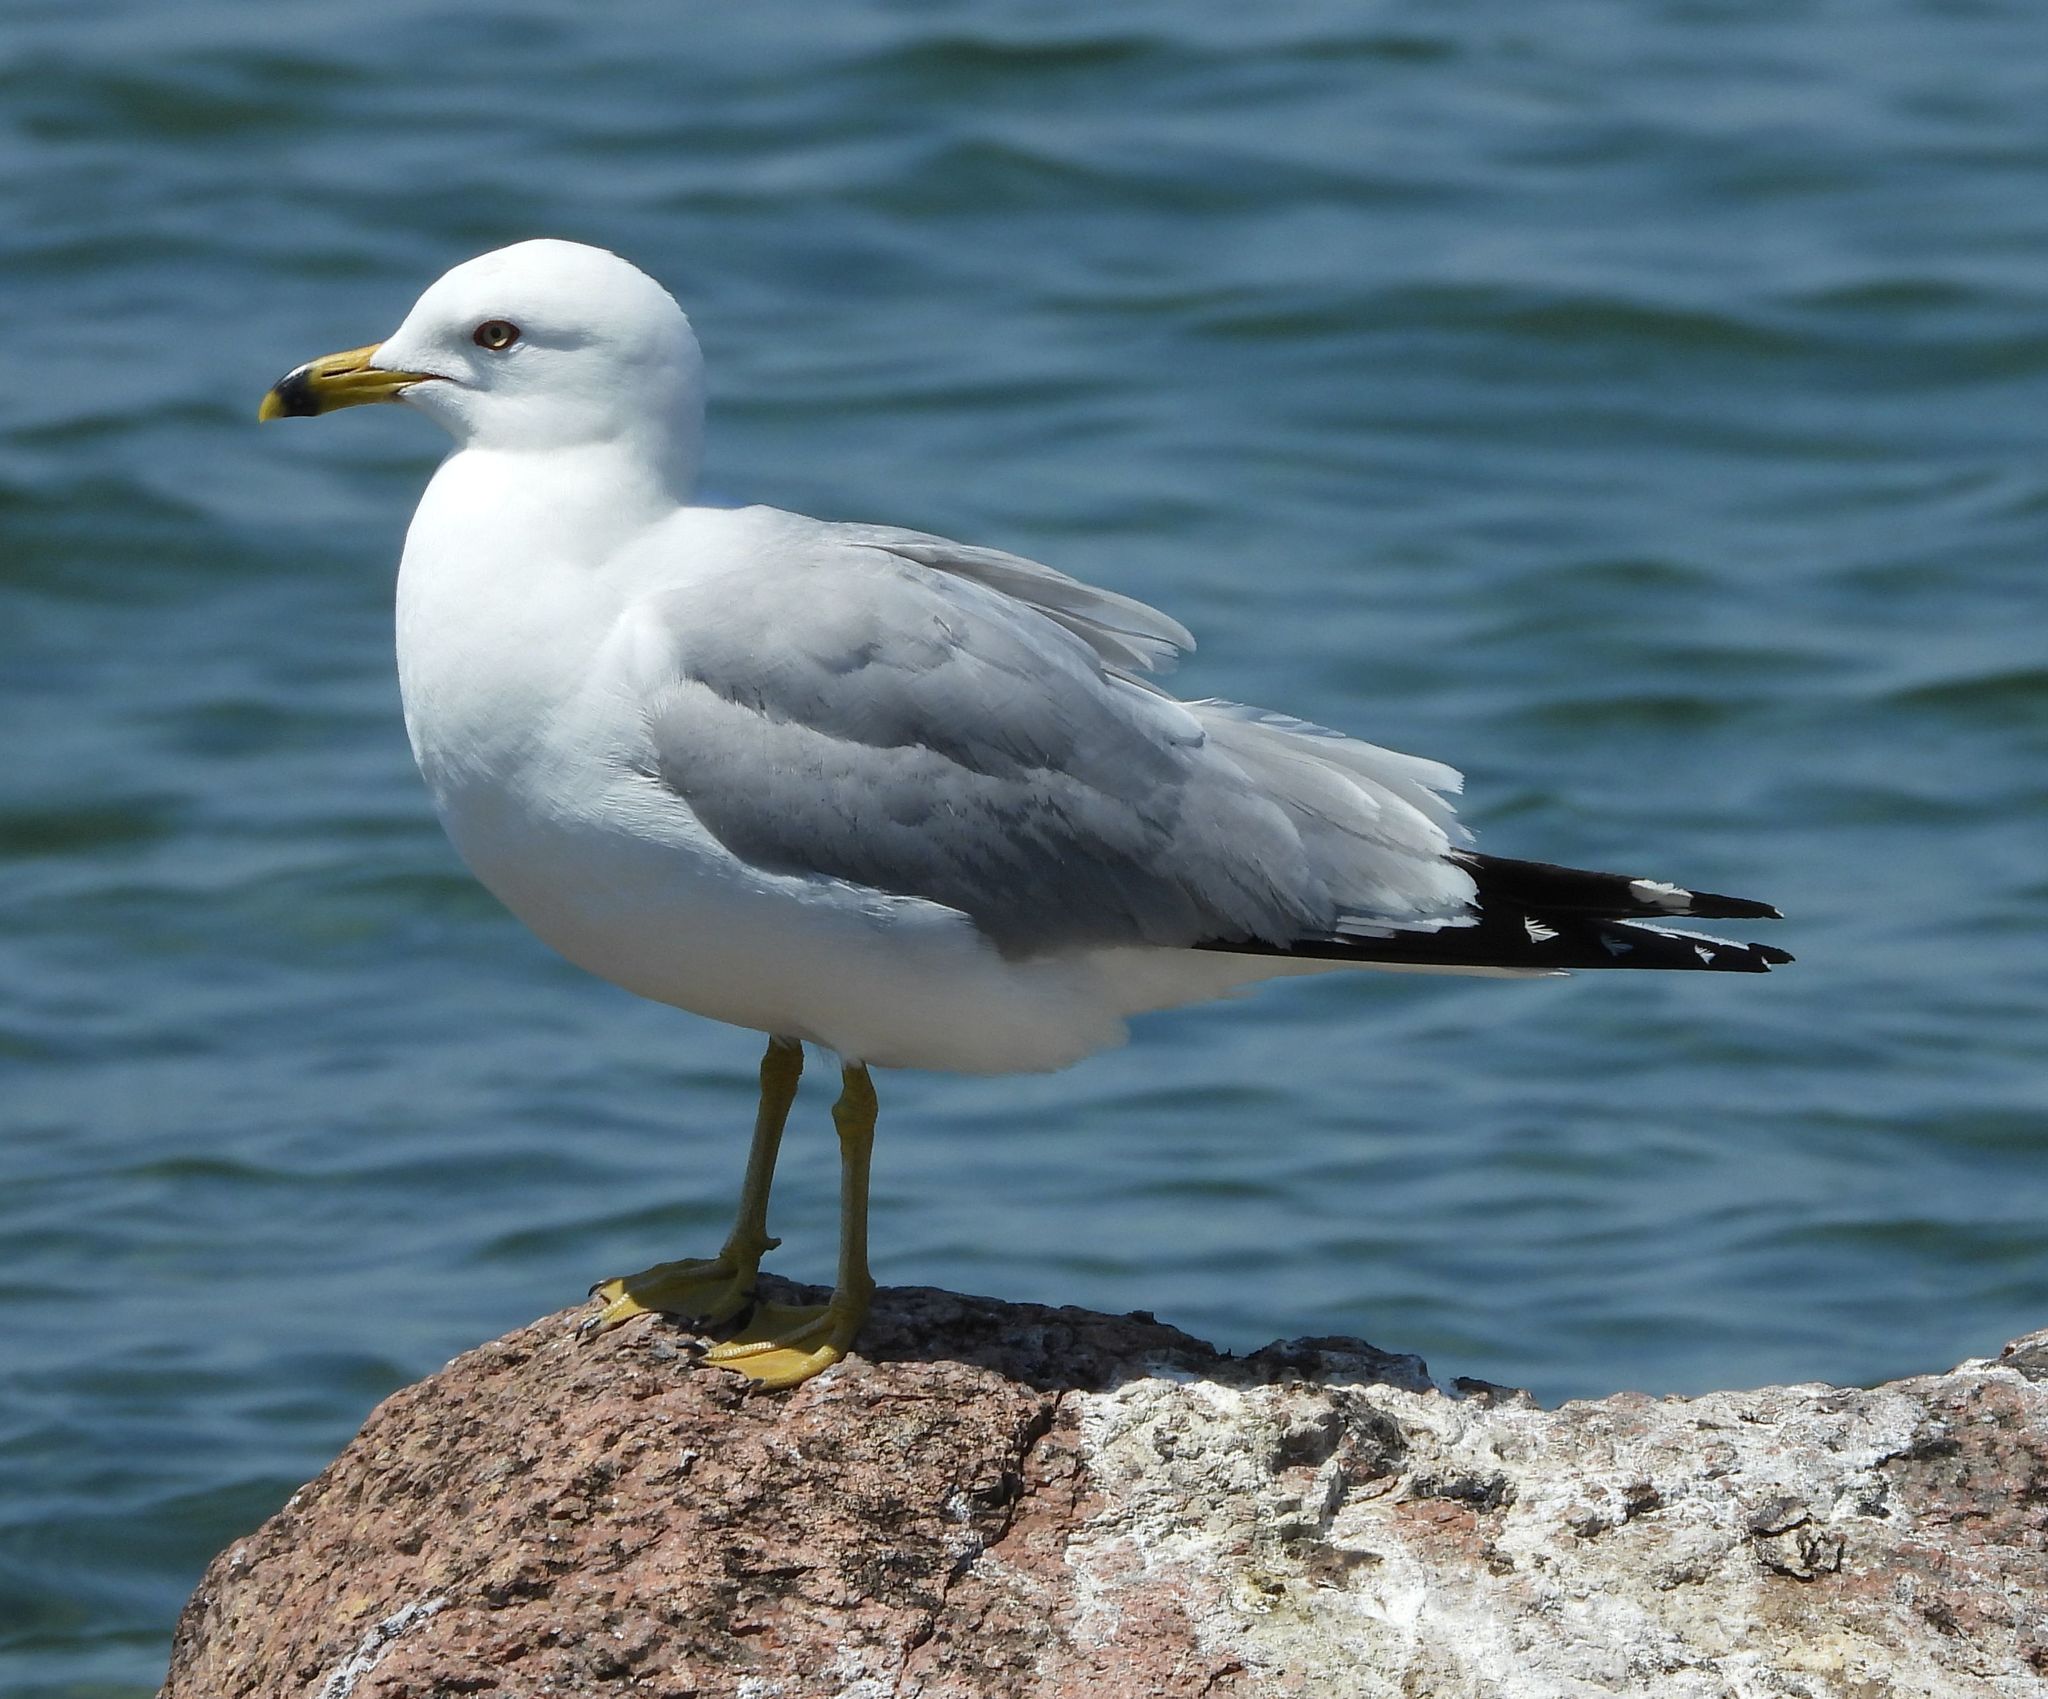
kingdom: Animalia
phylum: Chordata
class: Aves
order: Charadriiformes
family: Laridae
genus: Larus
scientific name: Larus delawarensis
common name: Ring-billed gull
